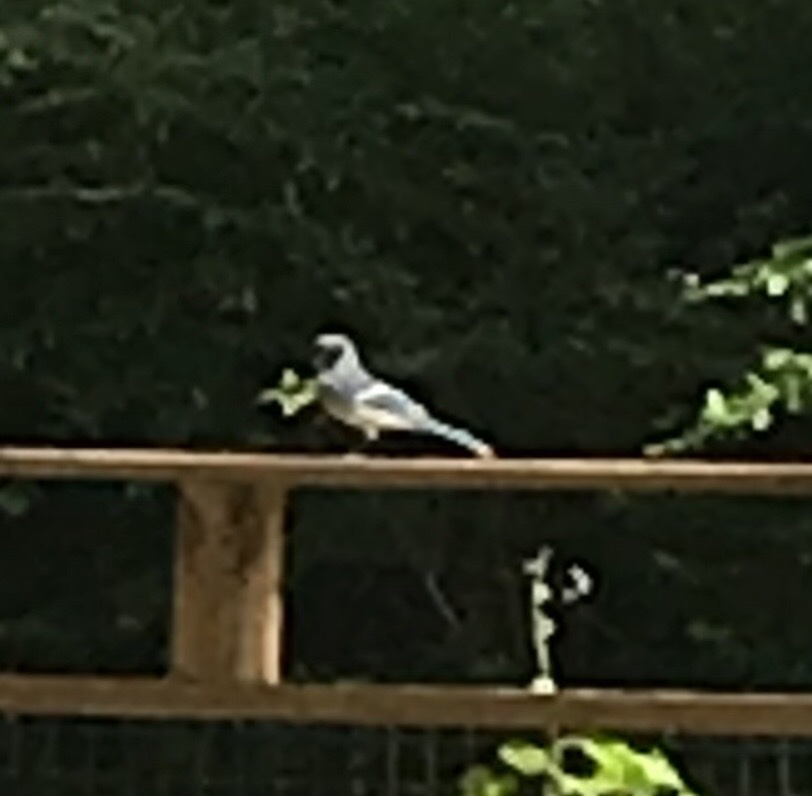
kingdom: Animalia
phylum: Chordata
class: Aves
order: Passeriformes
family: Corvidae
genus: Cyanocitta
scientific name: Cyanocitta cristata
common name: Blue jay
